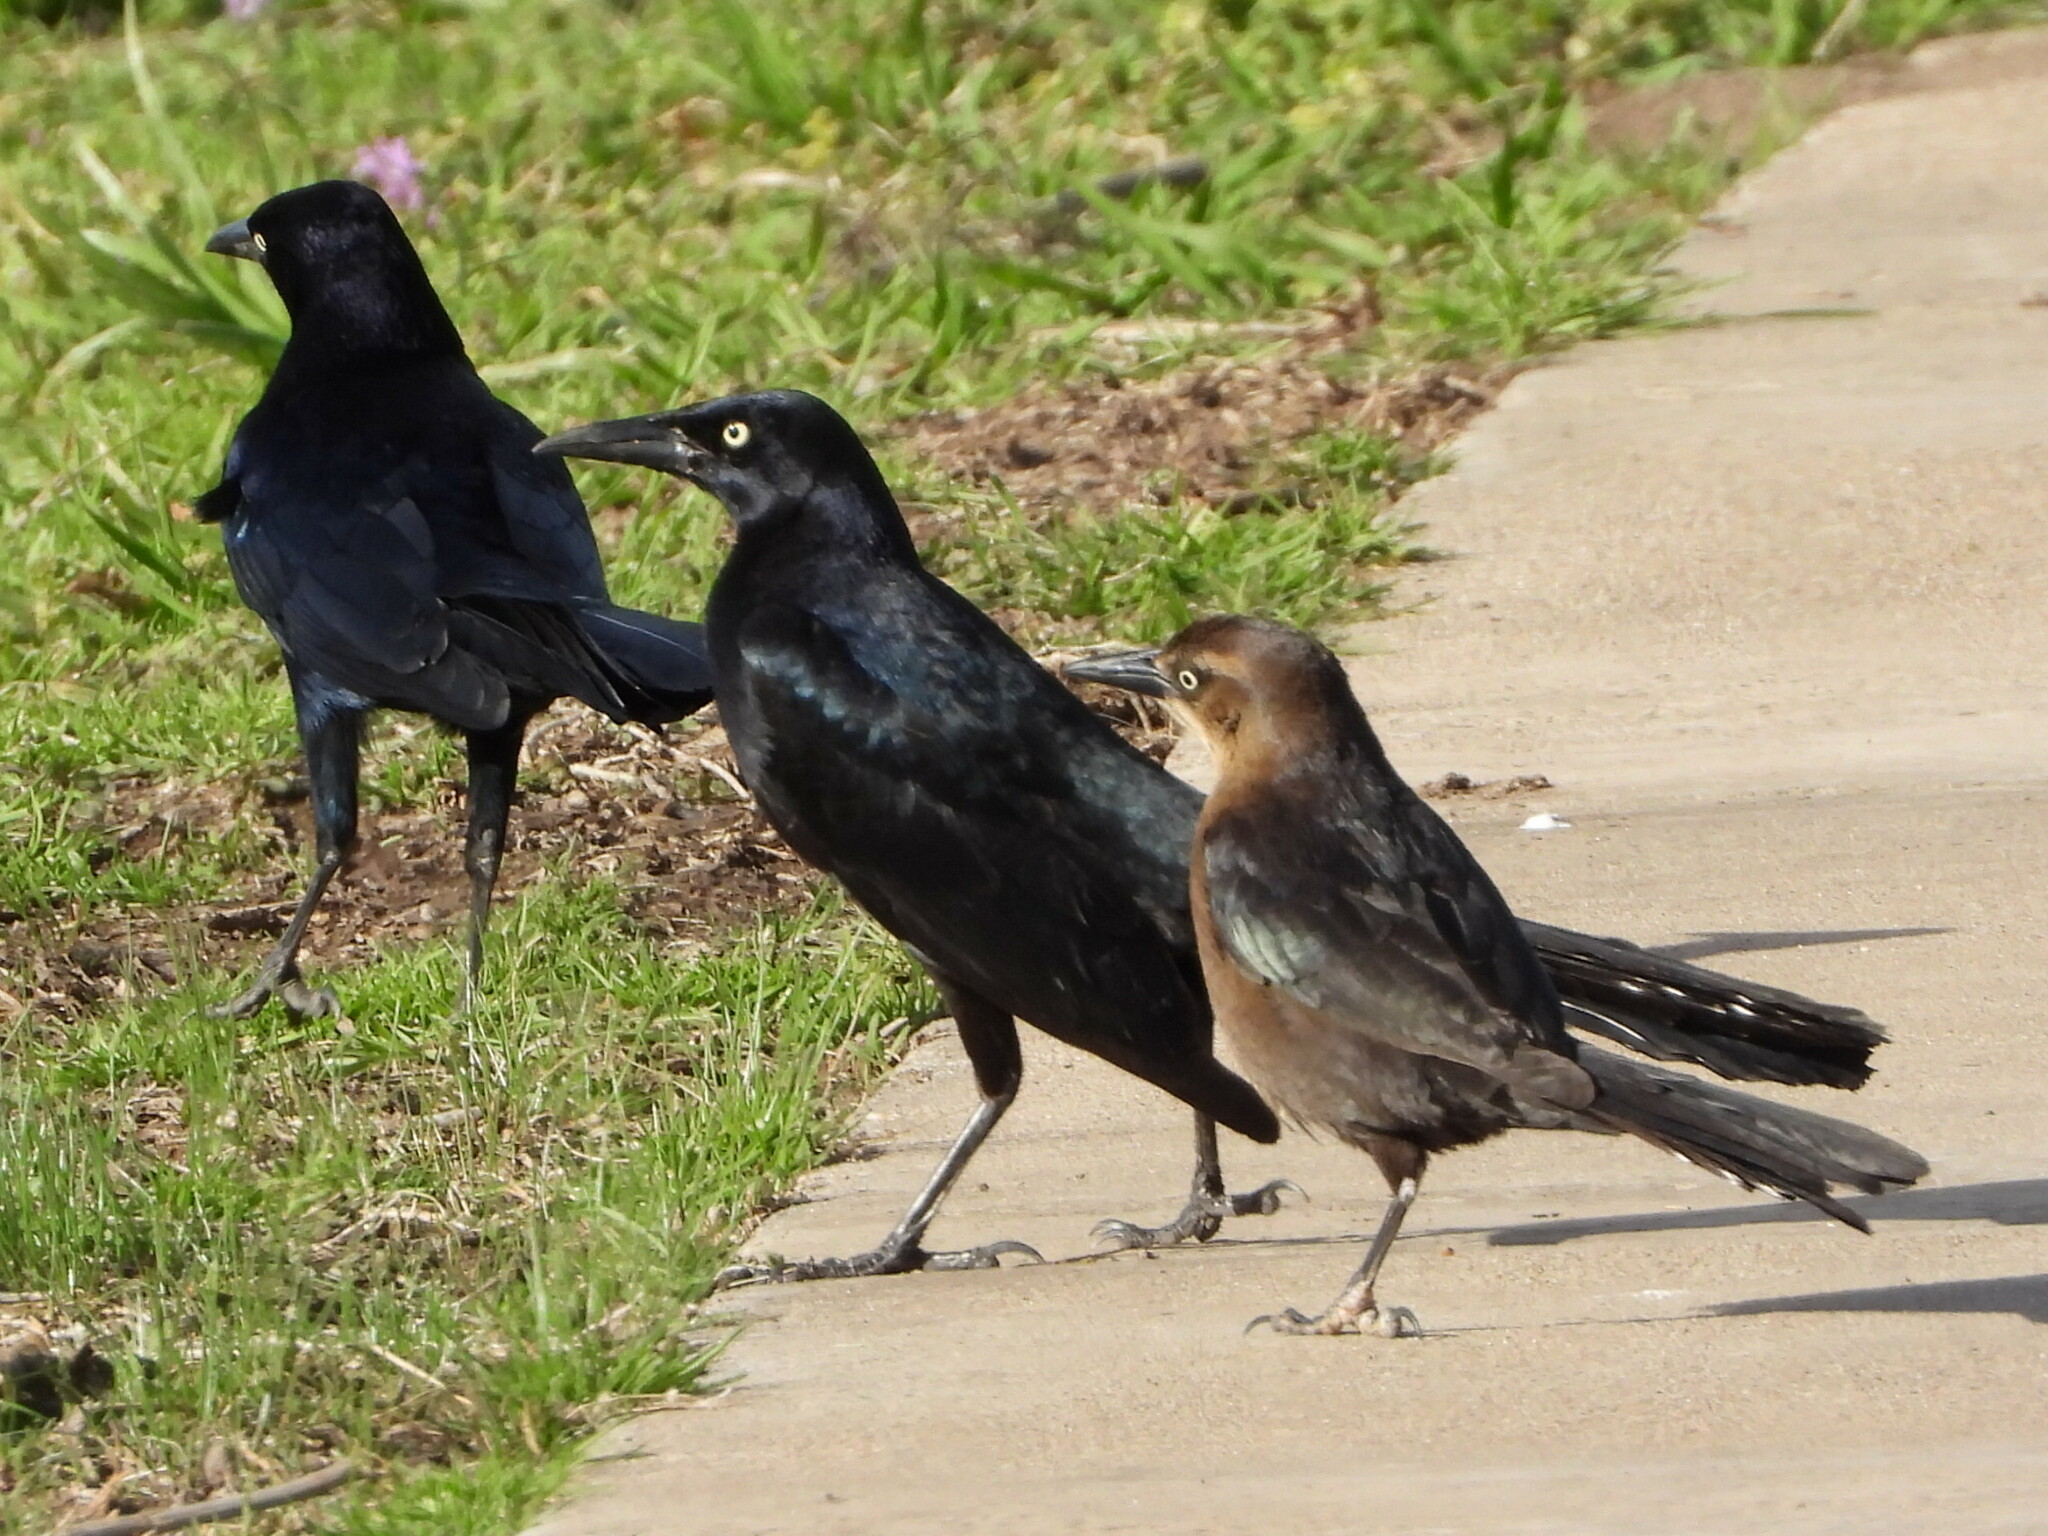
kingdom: Animalia
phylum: Chordata
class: Aves
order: Passeriformes
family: Icteridae
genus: Quiscalus
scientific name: Quiscalus mexicanus
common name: Great-tailed grackle
